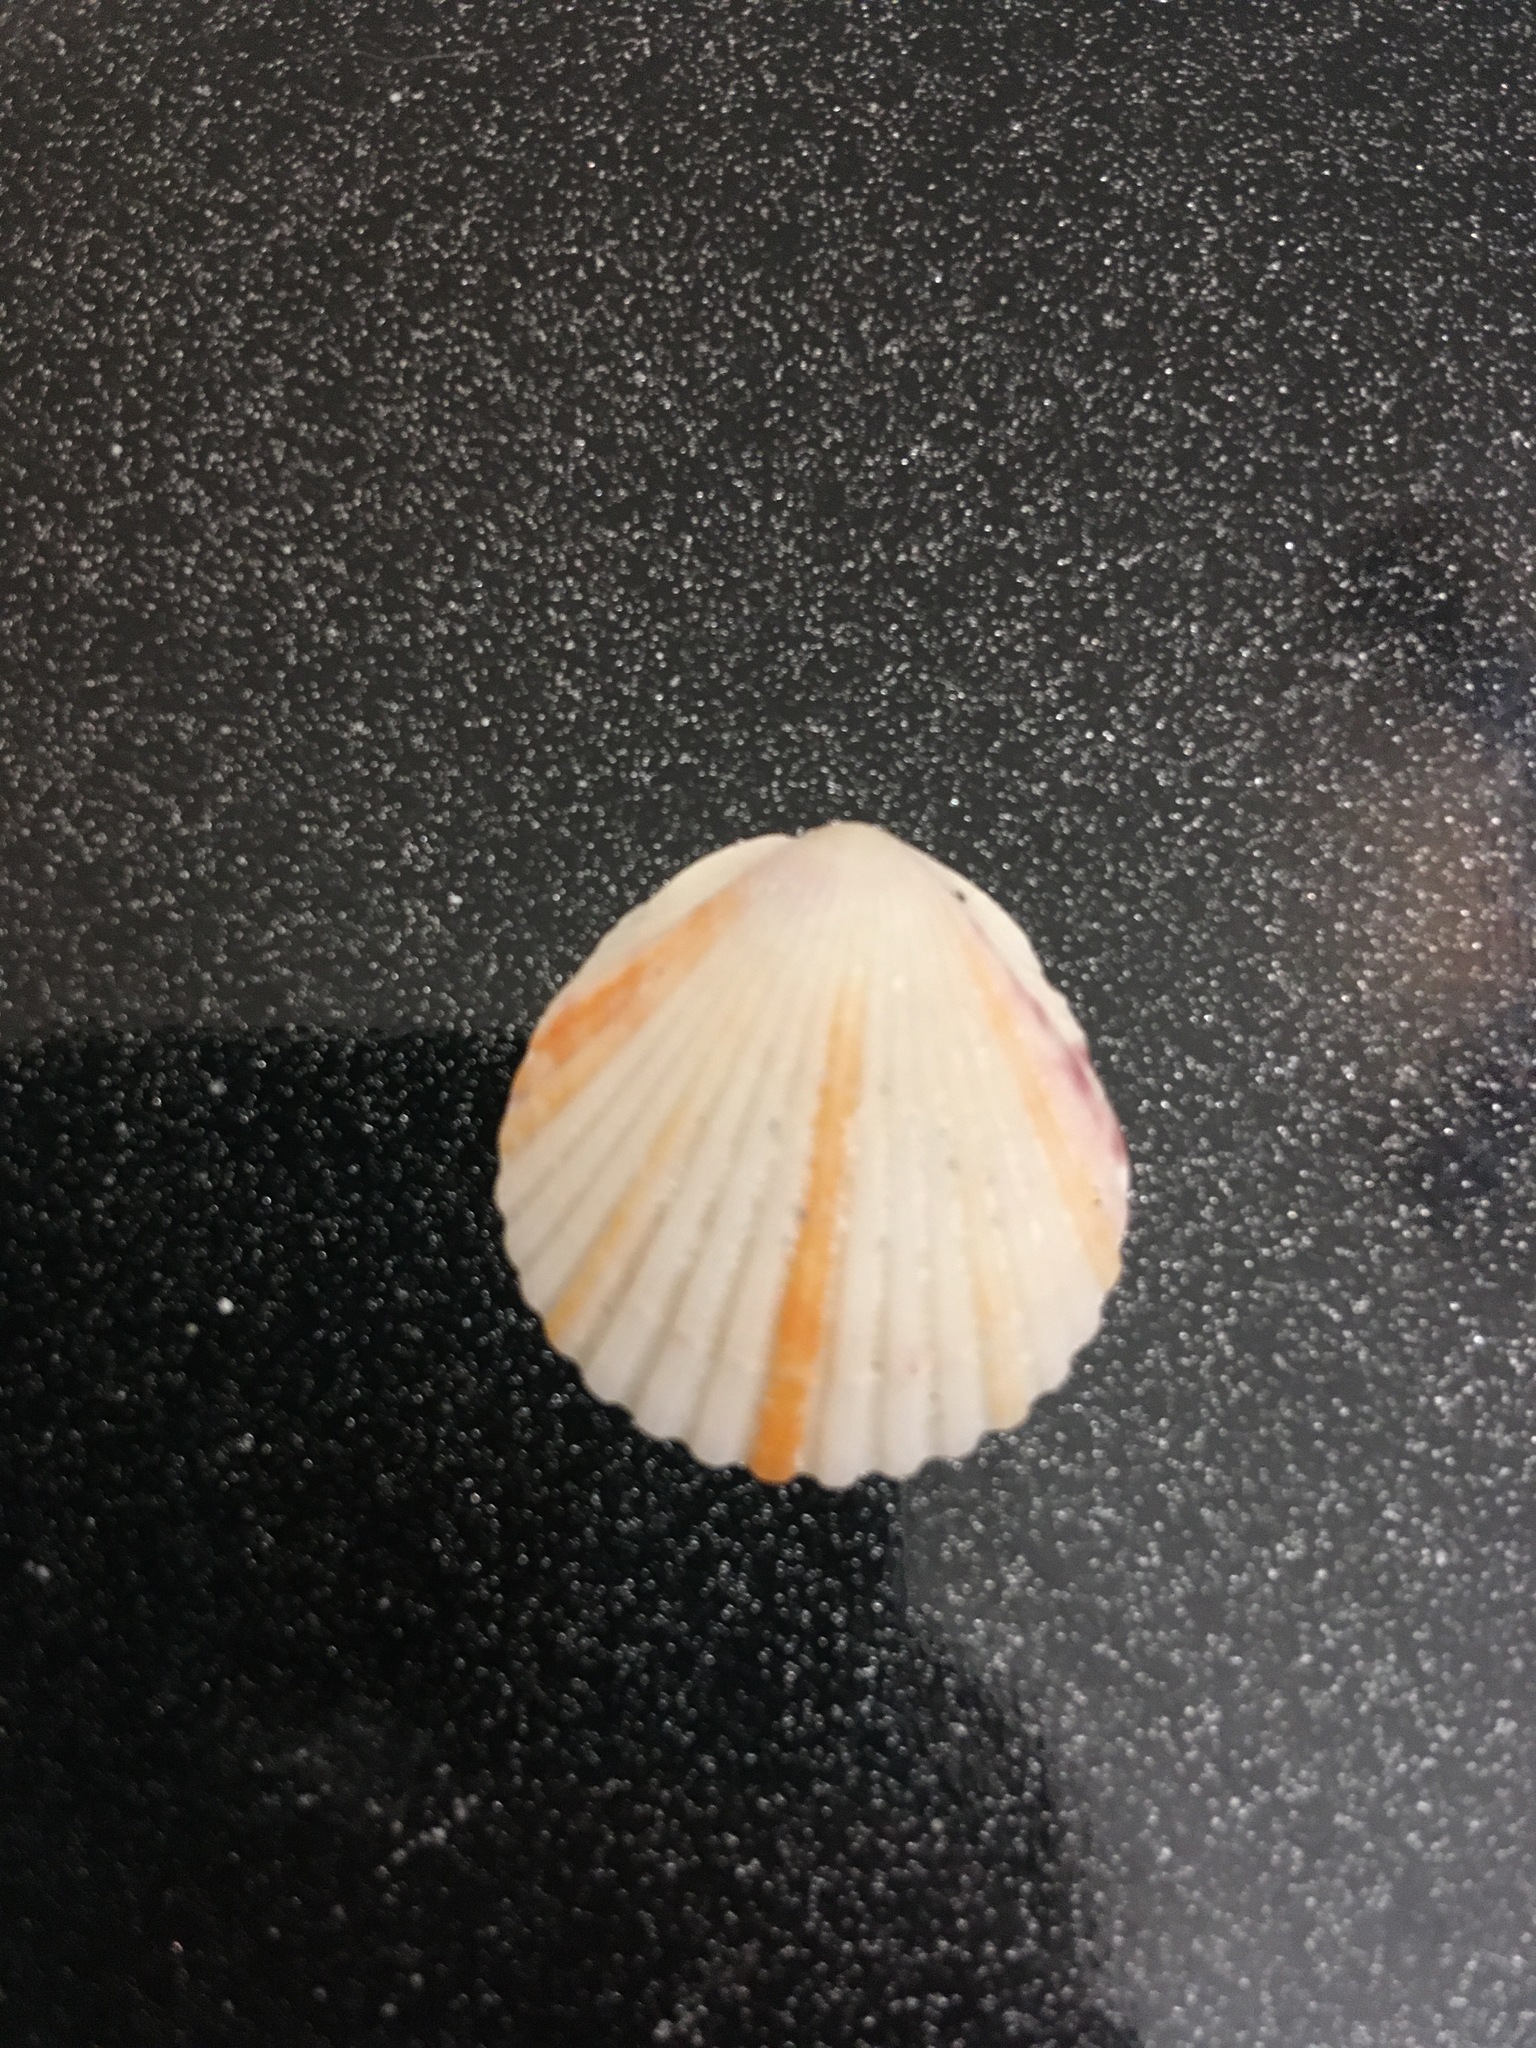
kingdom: Animalia
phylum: Mollusca
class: Bivalvia
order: Pectinida
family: Pectinidae
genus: Argopecten
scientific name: Argopecten gibbus
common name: Atlantic calico scallop
